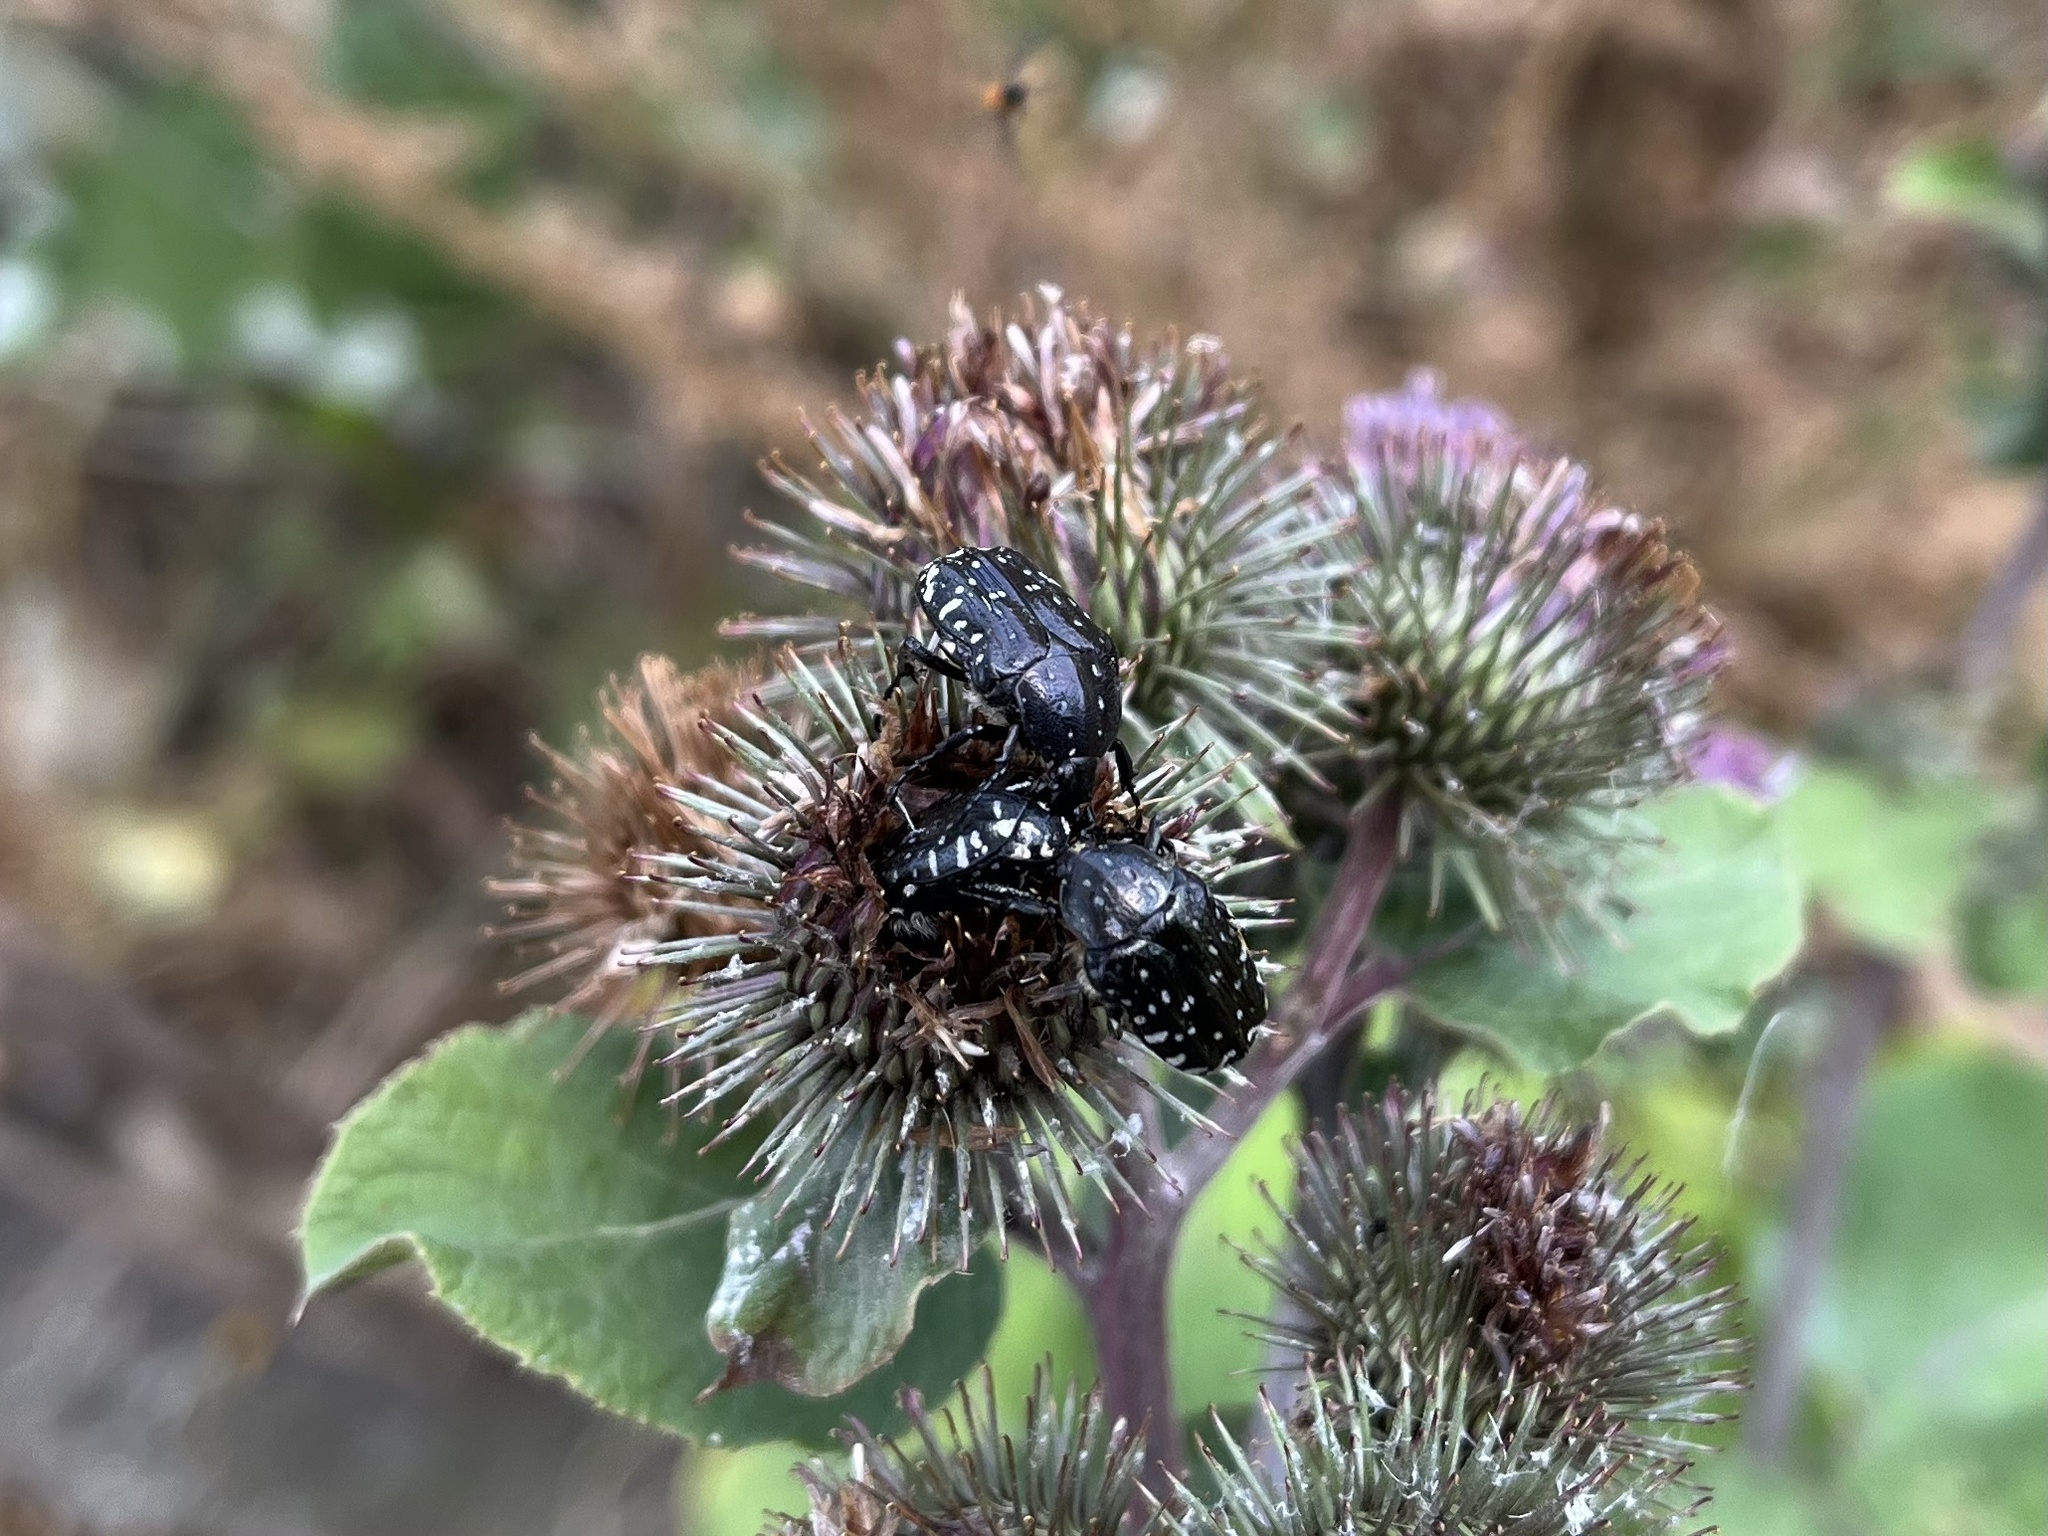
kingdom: Animalia
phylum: Arthropoda
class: Insecta
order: Coleoptera
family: Scarabaeidae
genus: Oxythyrea
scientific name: Oxythyrea funesta
